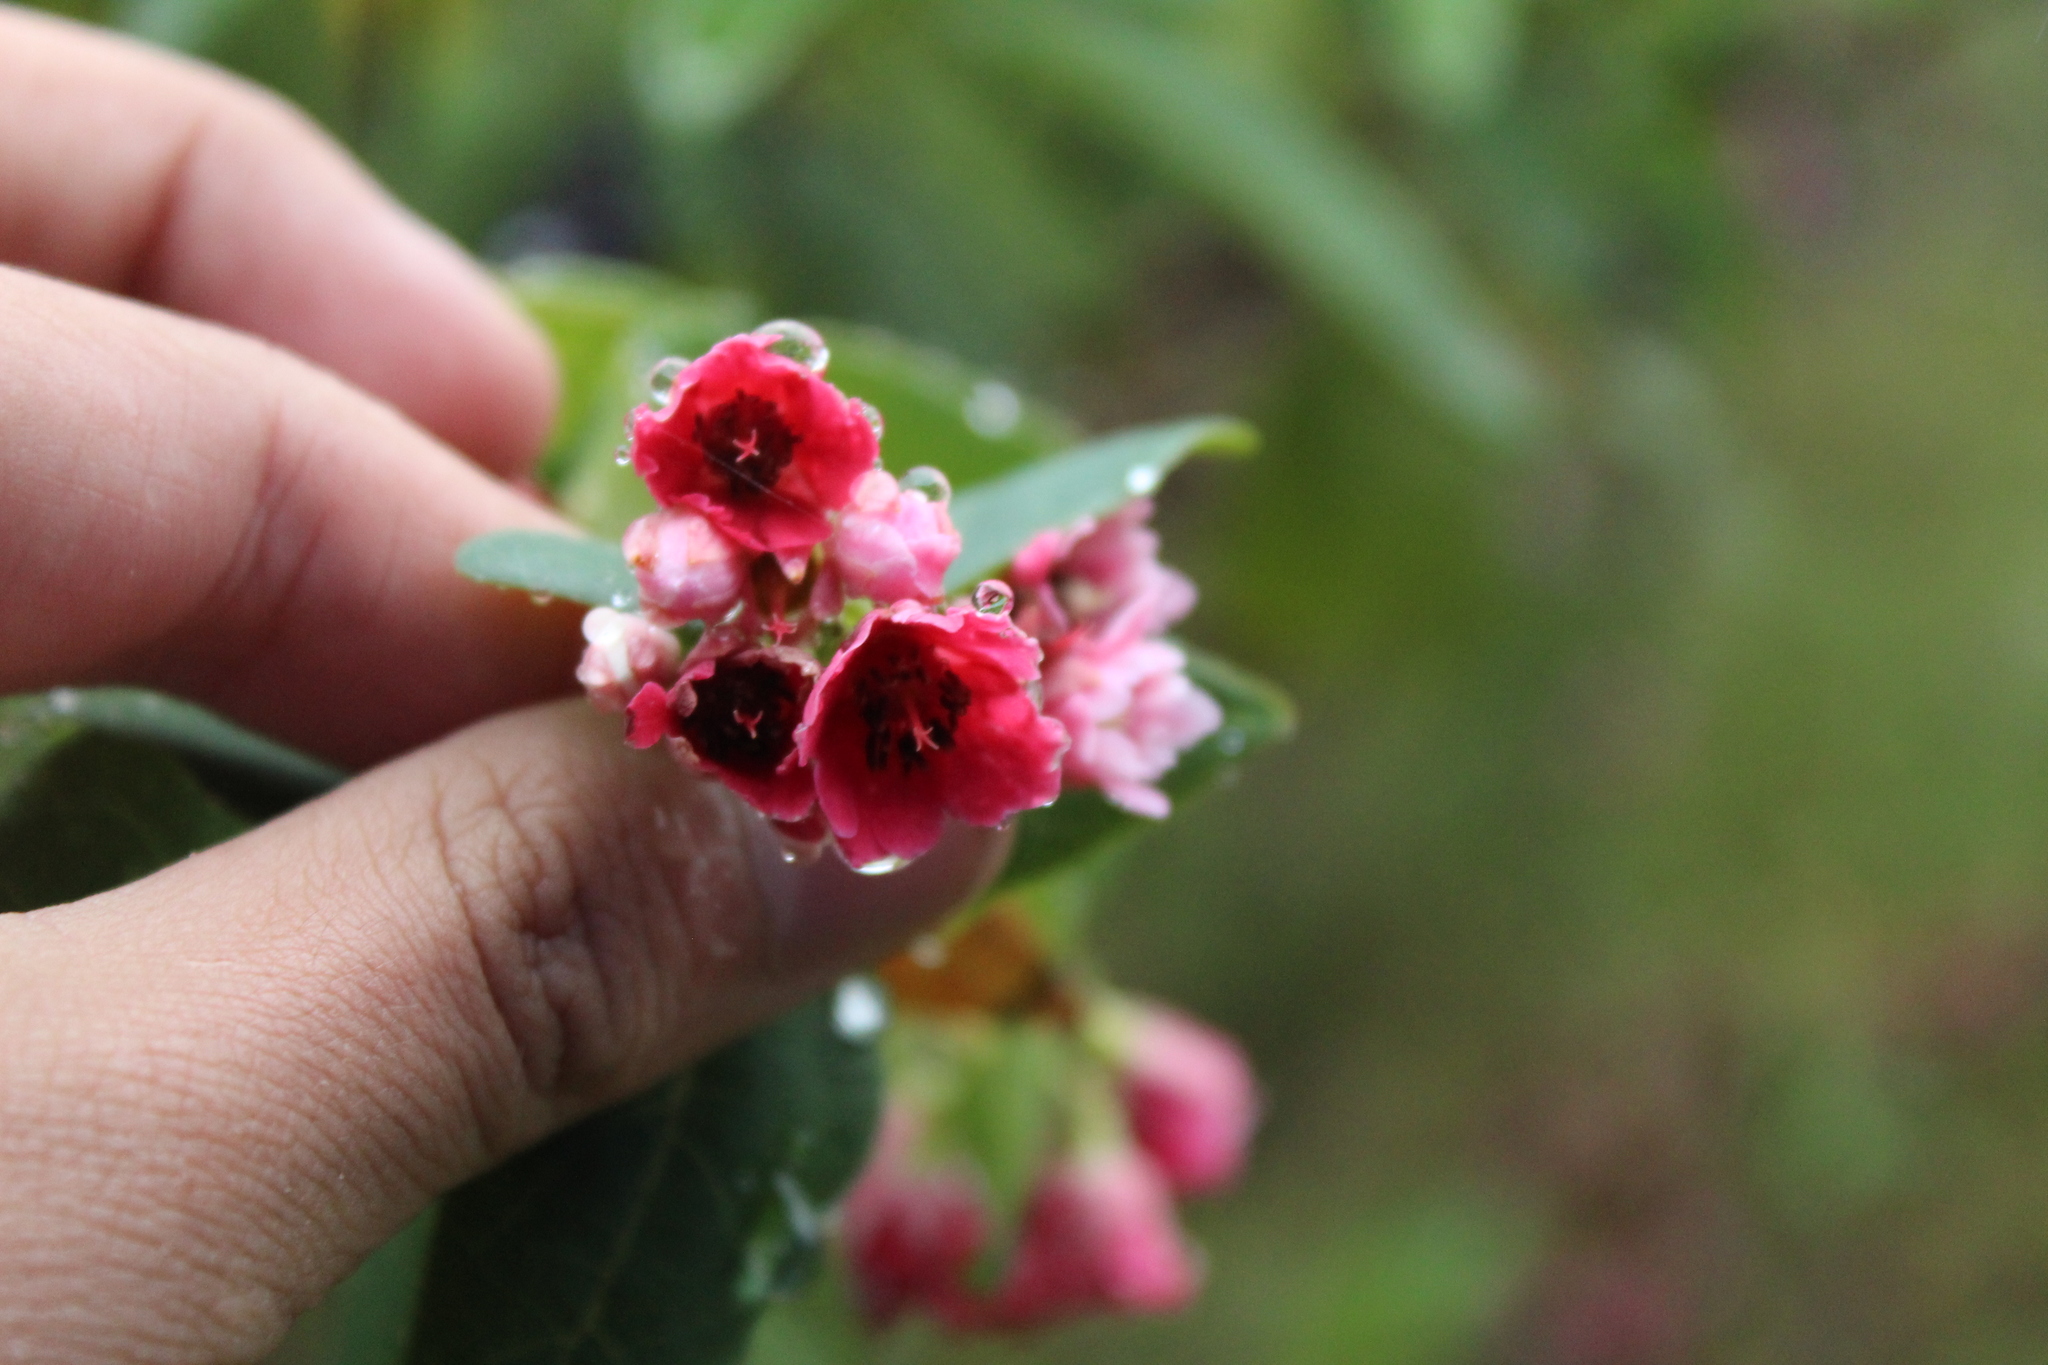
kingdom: Plantae
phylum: Tracheophyta
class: Magnoliopsida
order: Oxalidales
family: Elaeocarpaceae
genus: Vallea
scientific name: Vallea stipularis
